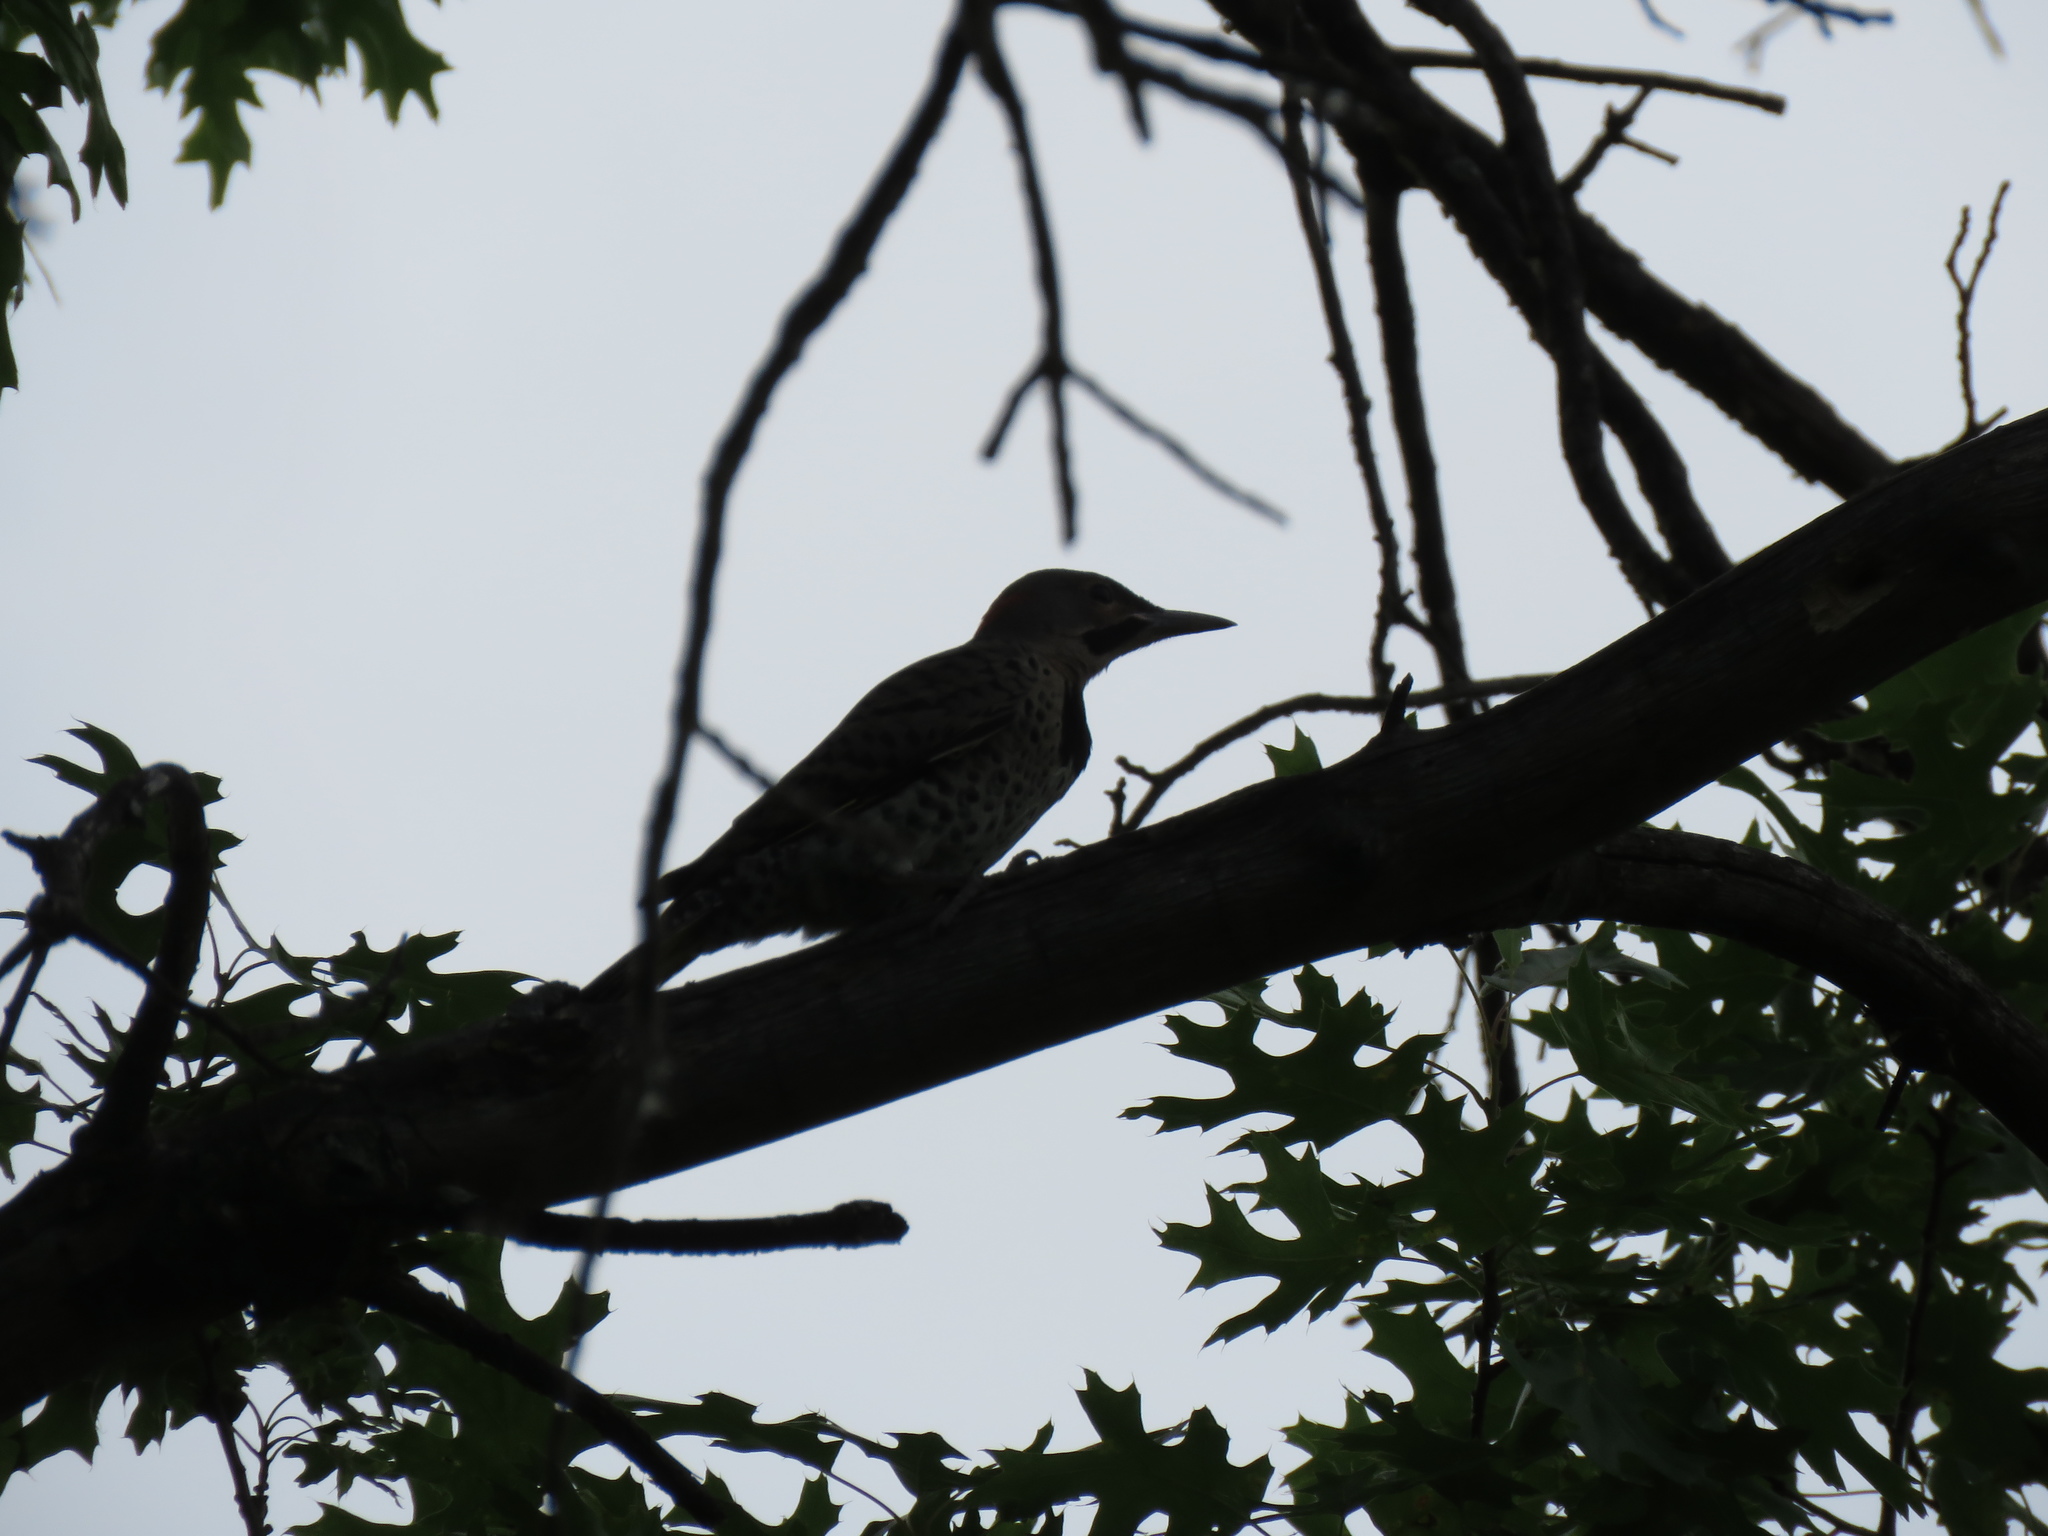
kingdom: Animalia
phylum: Chordata
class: Aves
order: Piciformes
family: Picidae
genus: Colaptes
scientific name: Colaptes auratus
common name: Northern flicker
